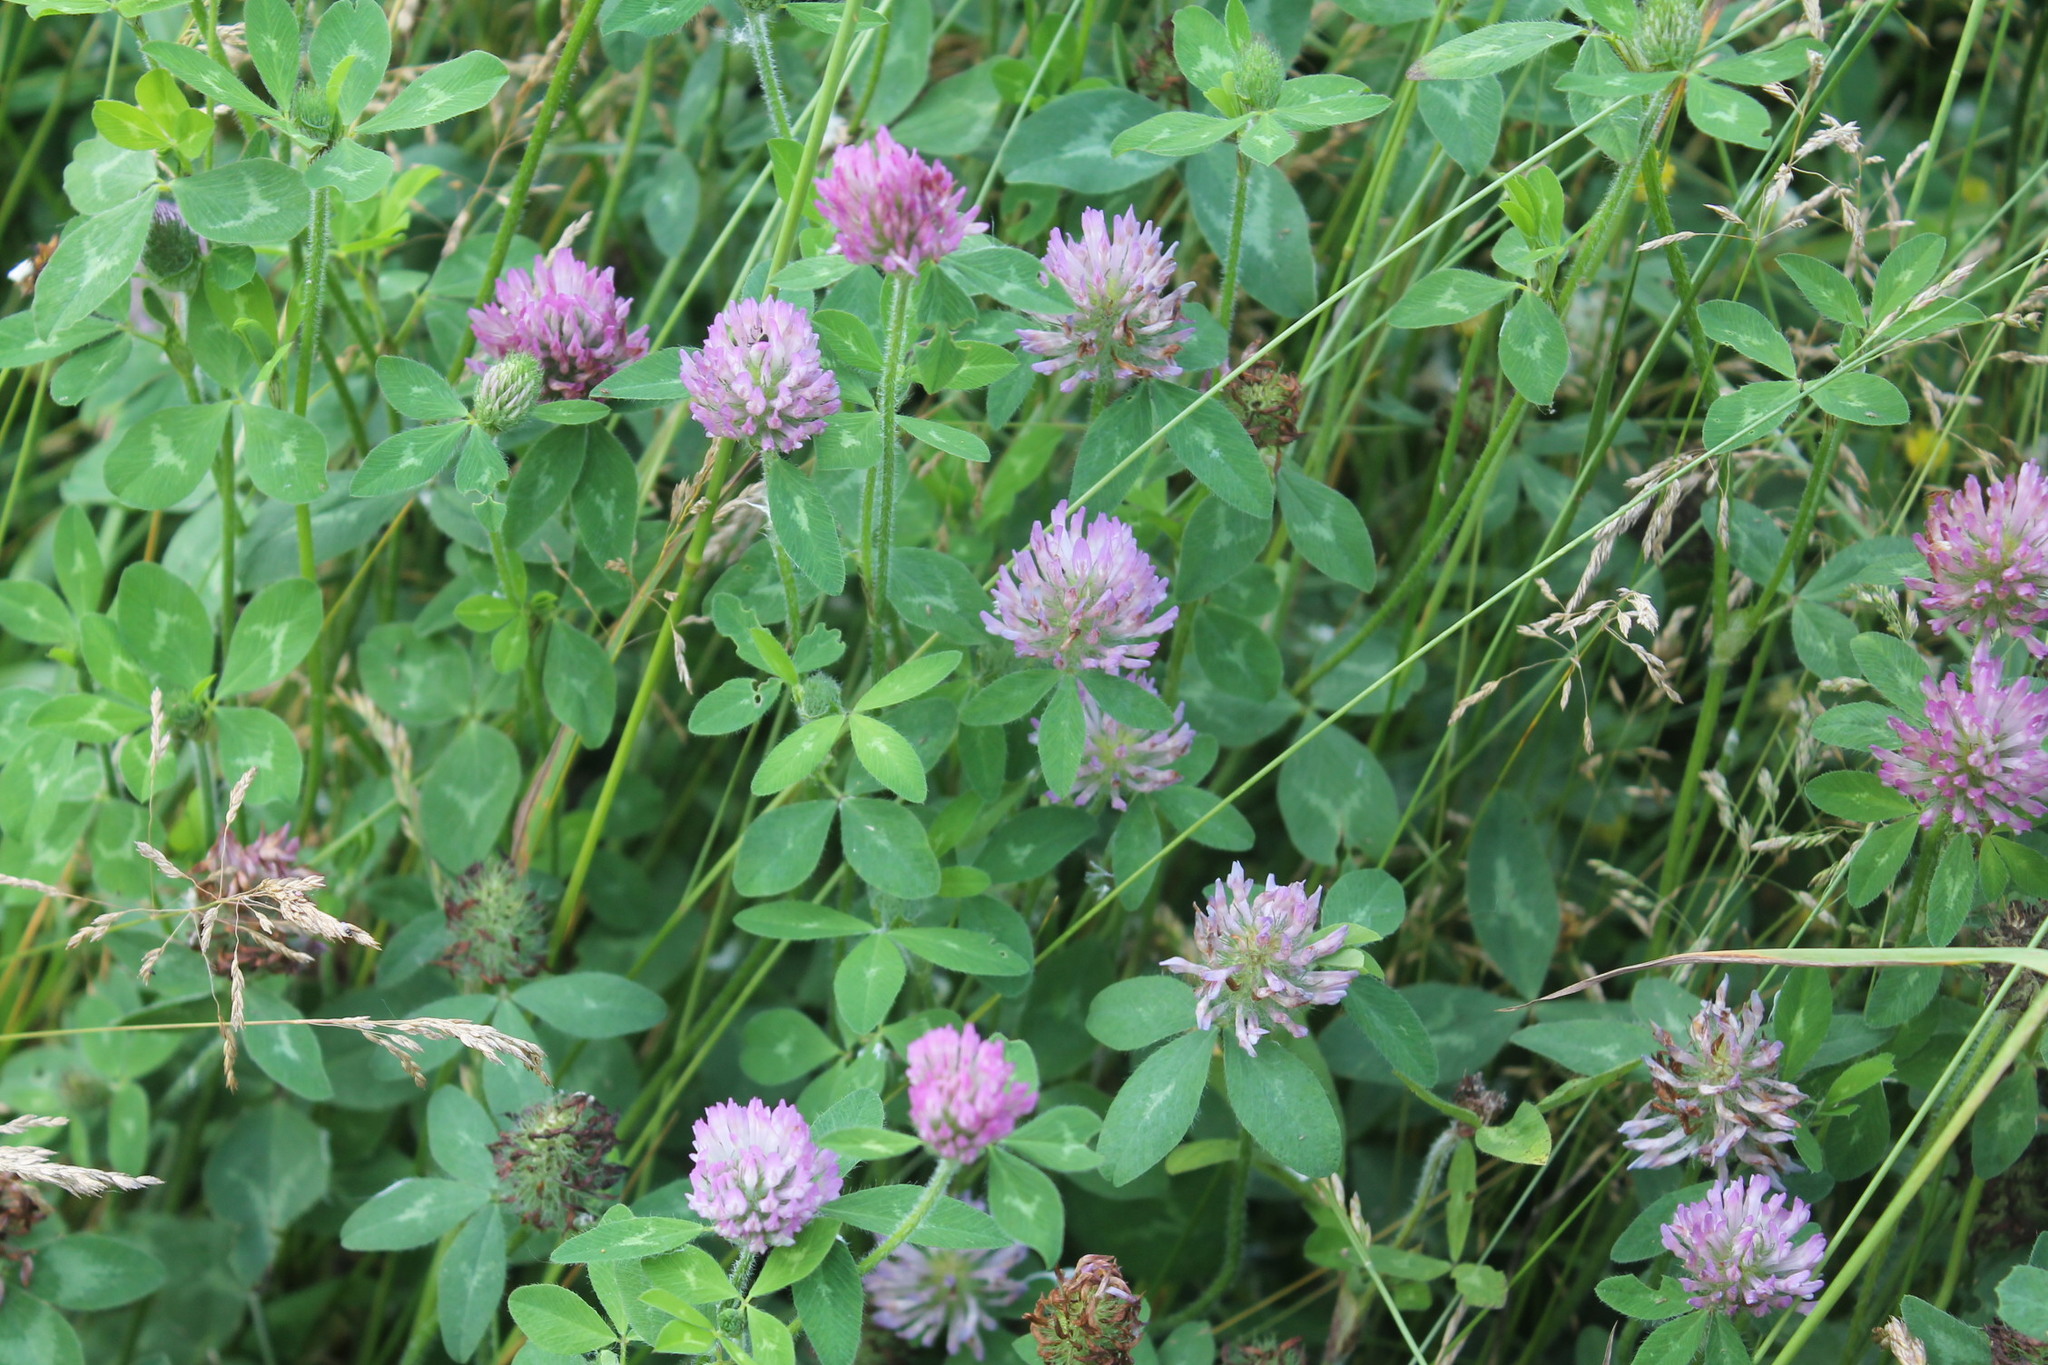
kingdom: Plantae
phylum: Tracheophyta
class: Magnoliopsida
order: Fabales
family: Fabaceae
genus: Trifolium
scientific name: Trifolium pratense
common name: Red clover
